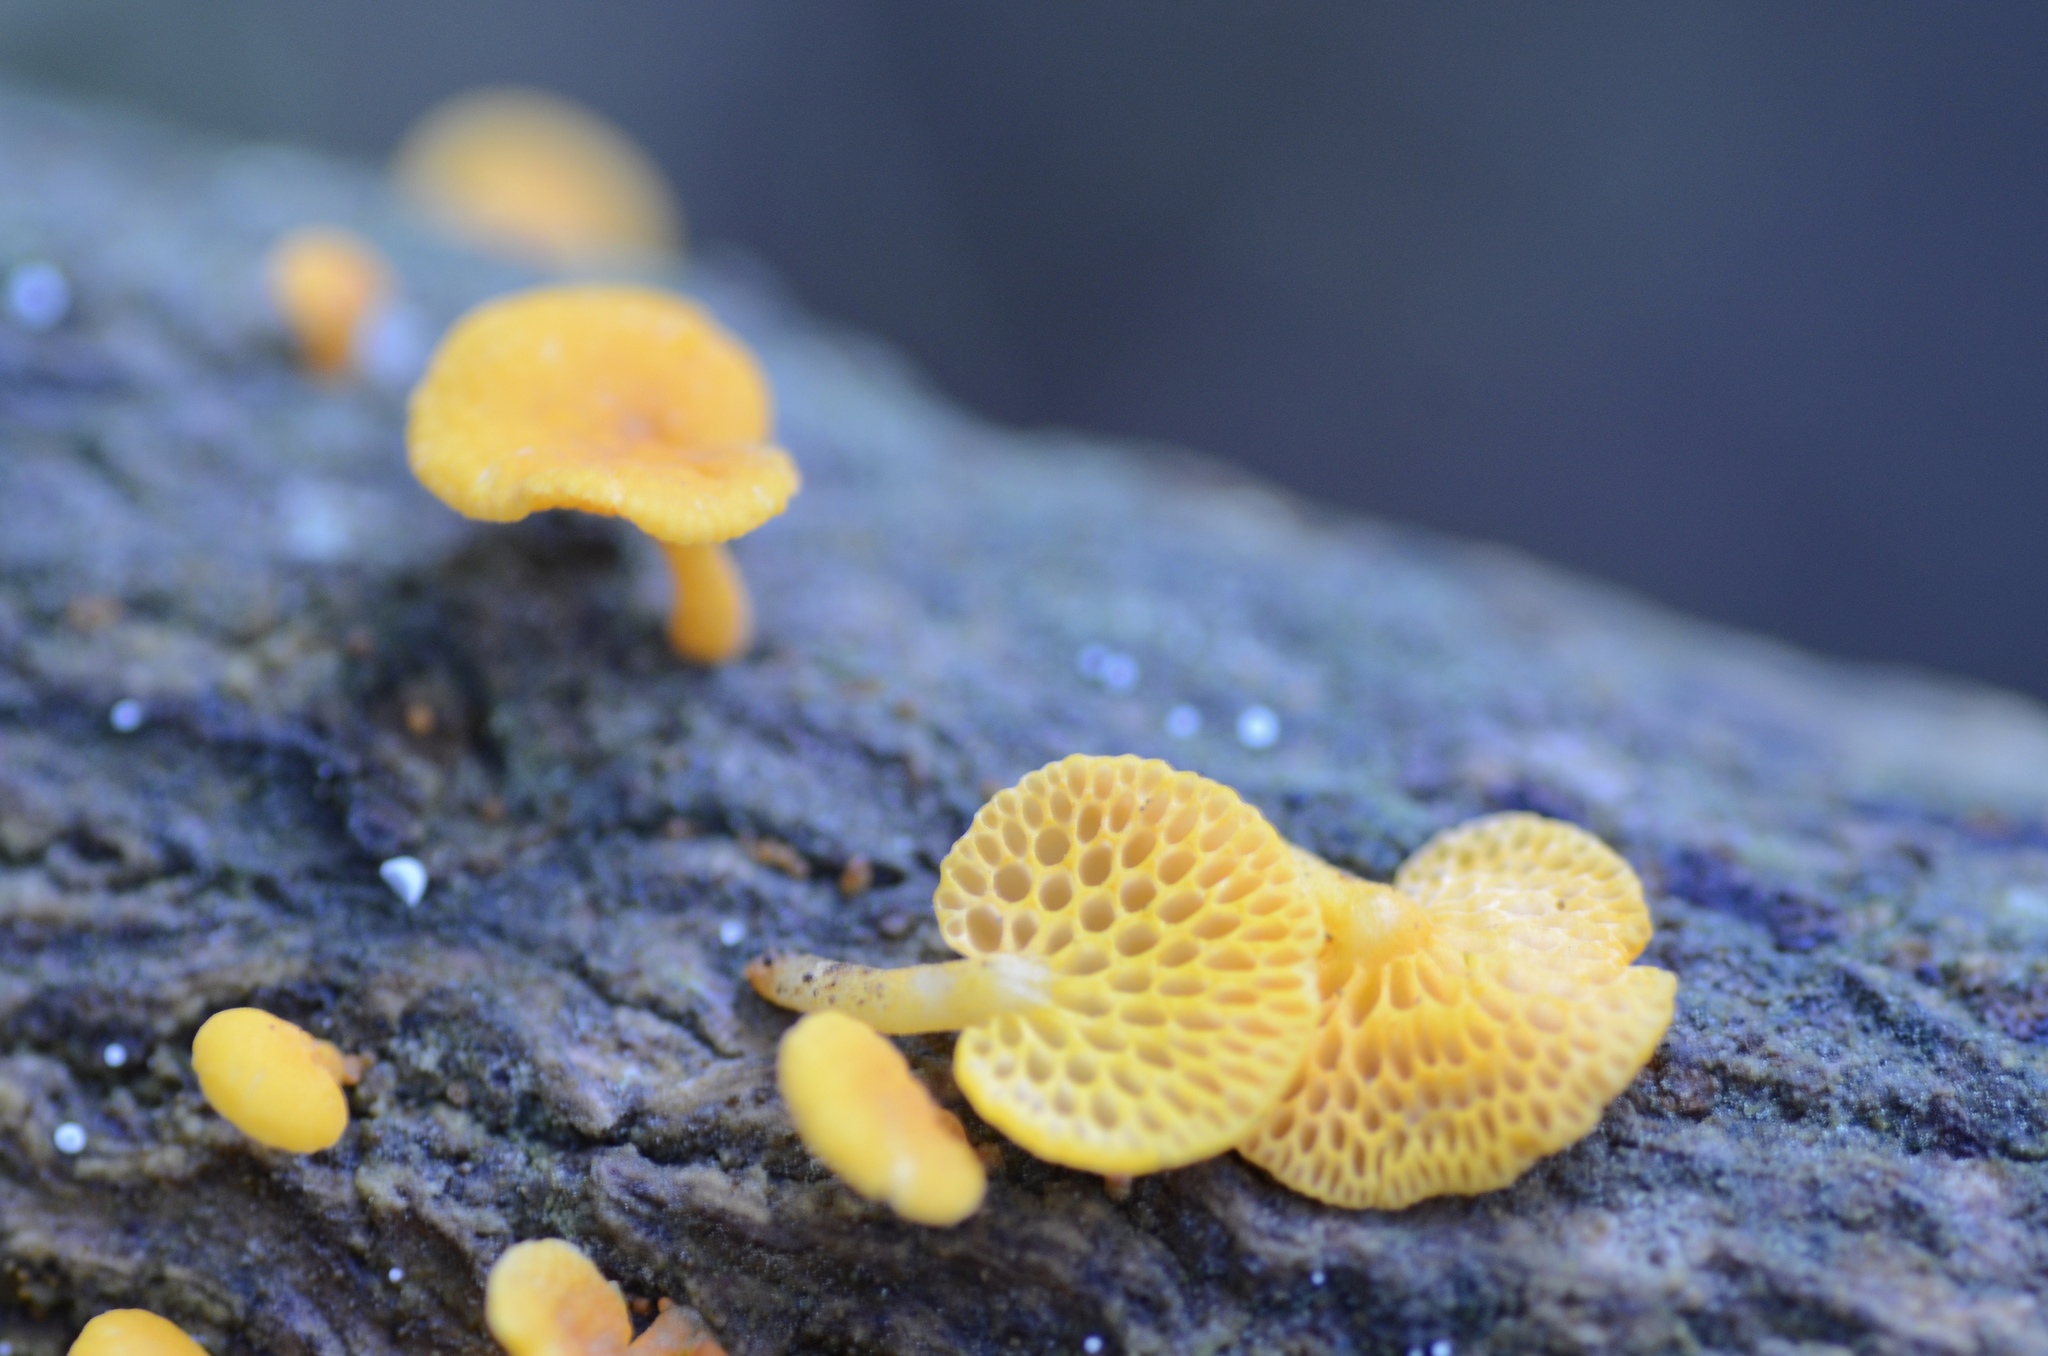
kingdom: Fungi
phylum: Basidiomycota
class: Agaricomycetes
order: Agaricales
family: Mycenaceae
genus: Favolaschia
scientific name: Favolaschia claudopus
